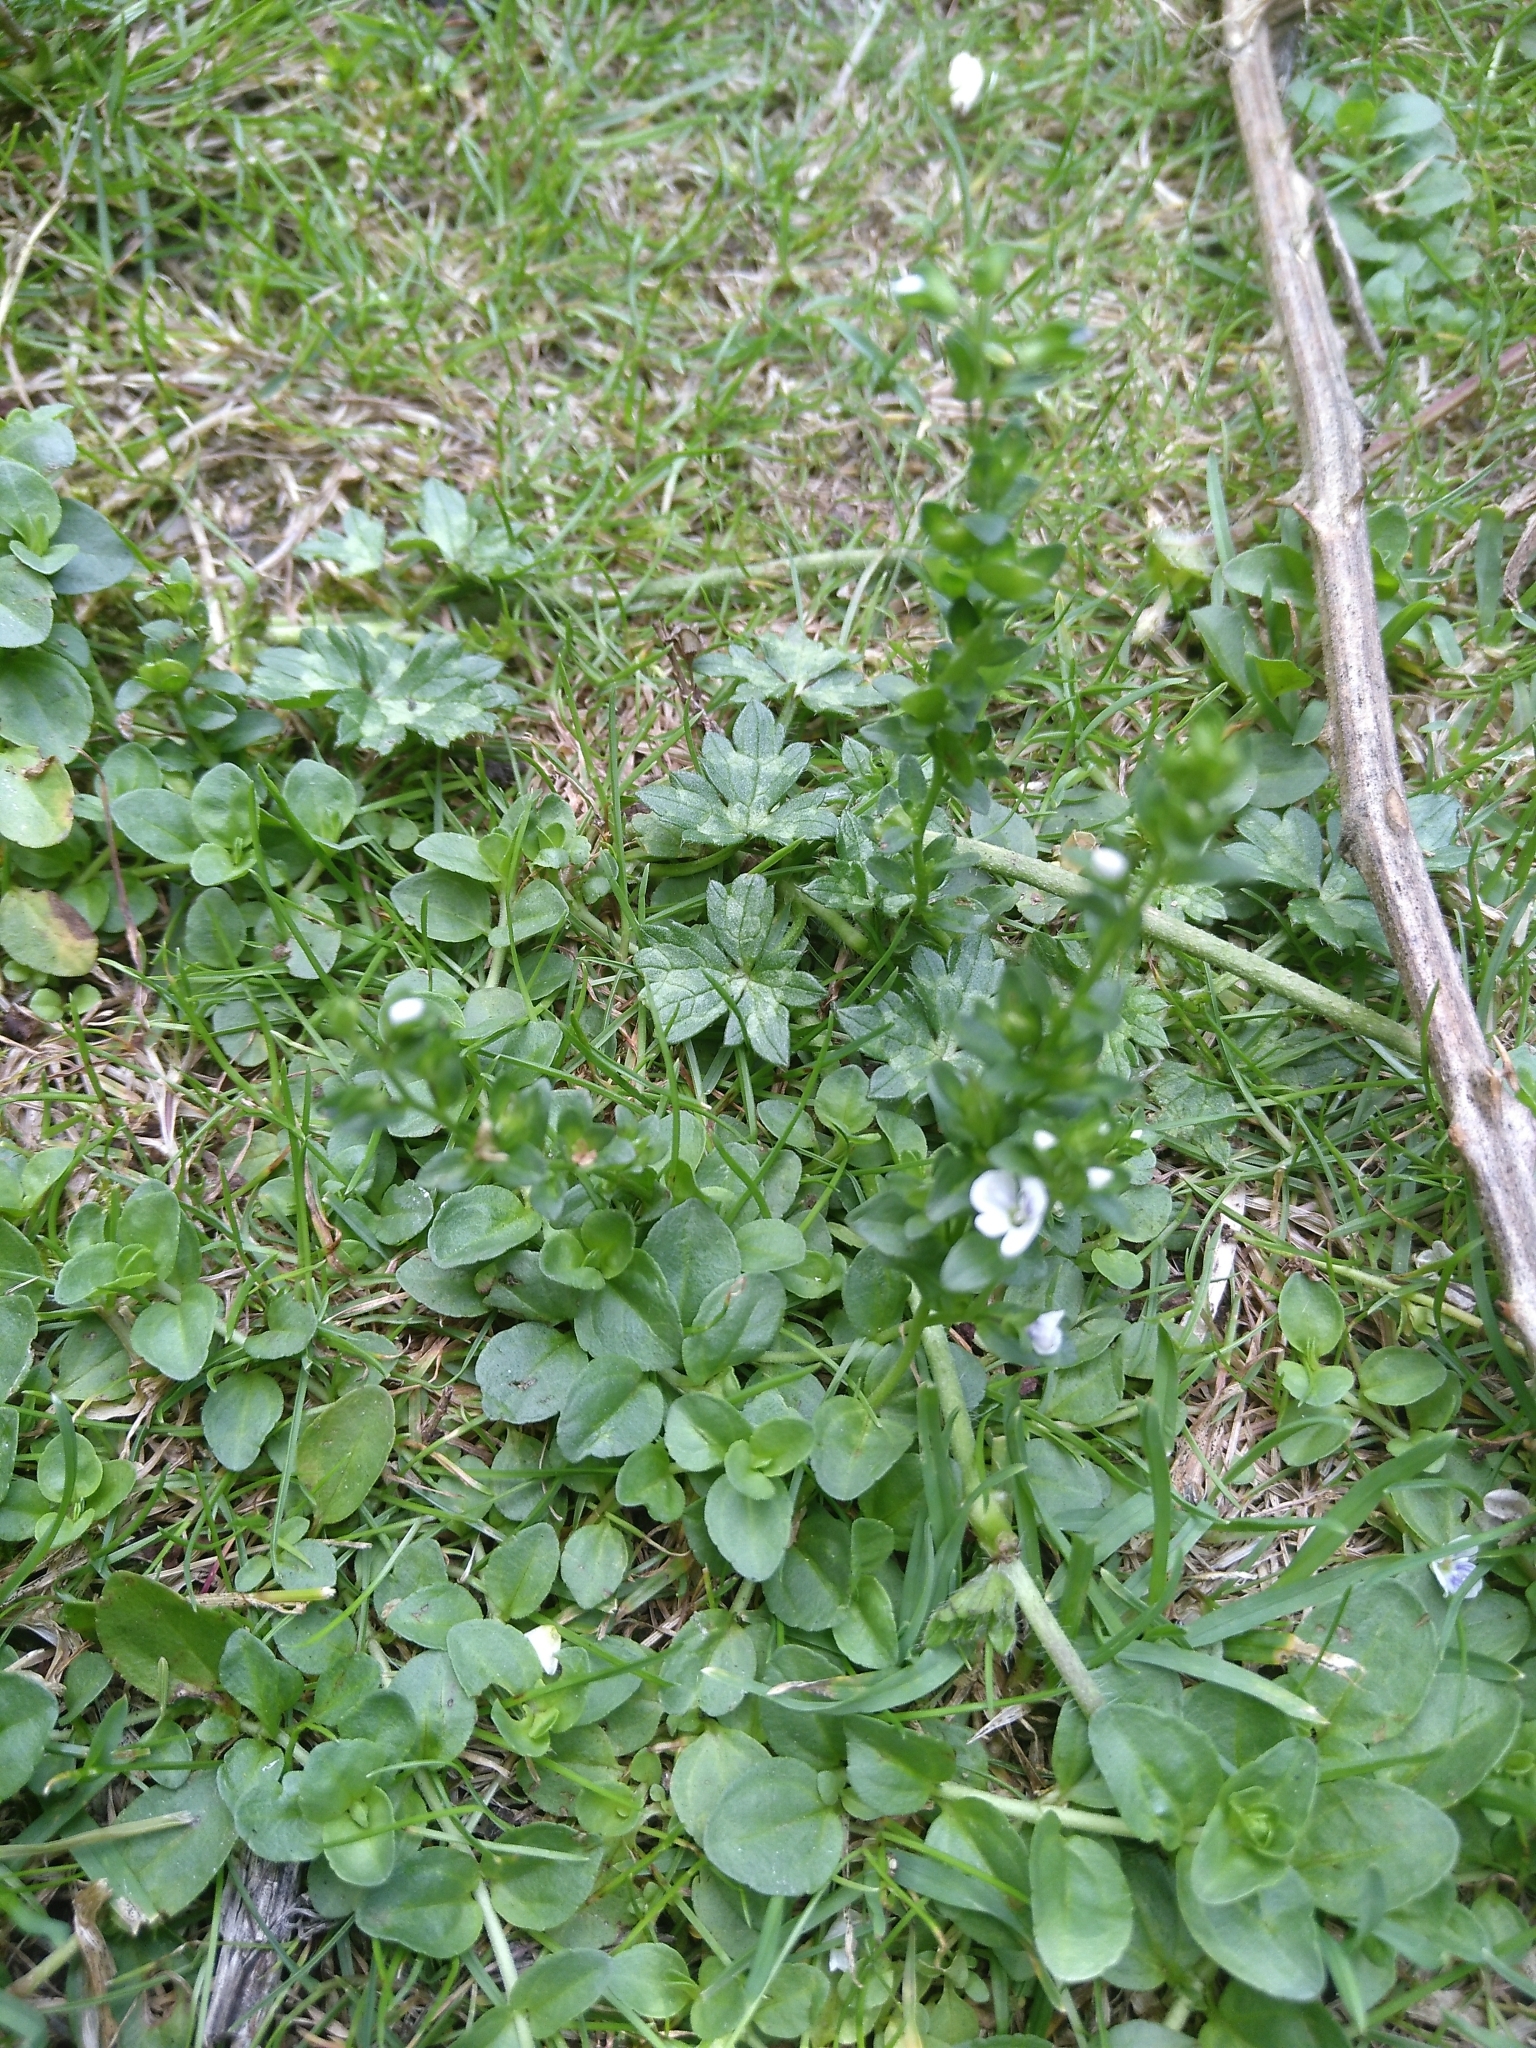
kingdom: Plantae
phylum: Tracheophyta
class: Magnoliopsida
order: Lamiales
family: Plantaginaceae
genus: Veronica
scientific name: Veronica serpyllifolia
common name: Thyme-leaved speedwell
